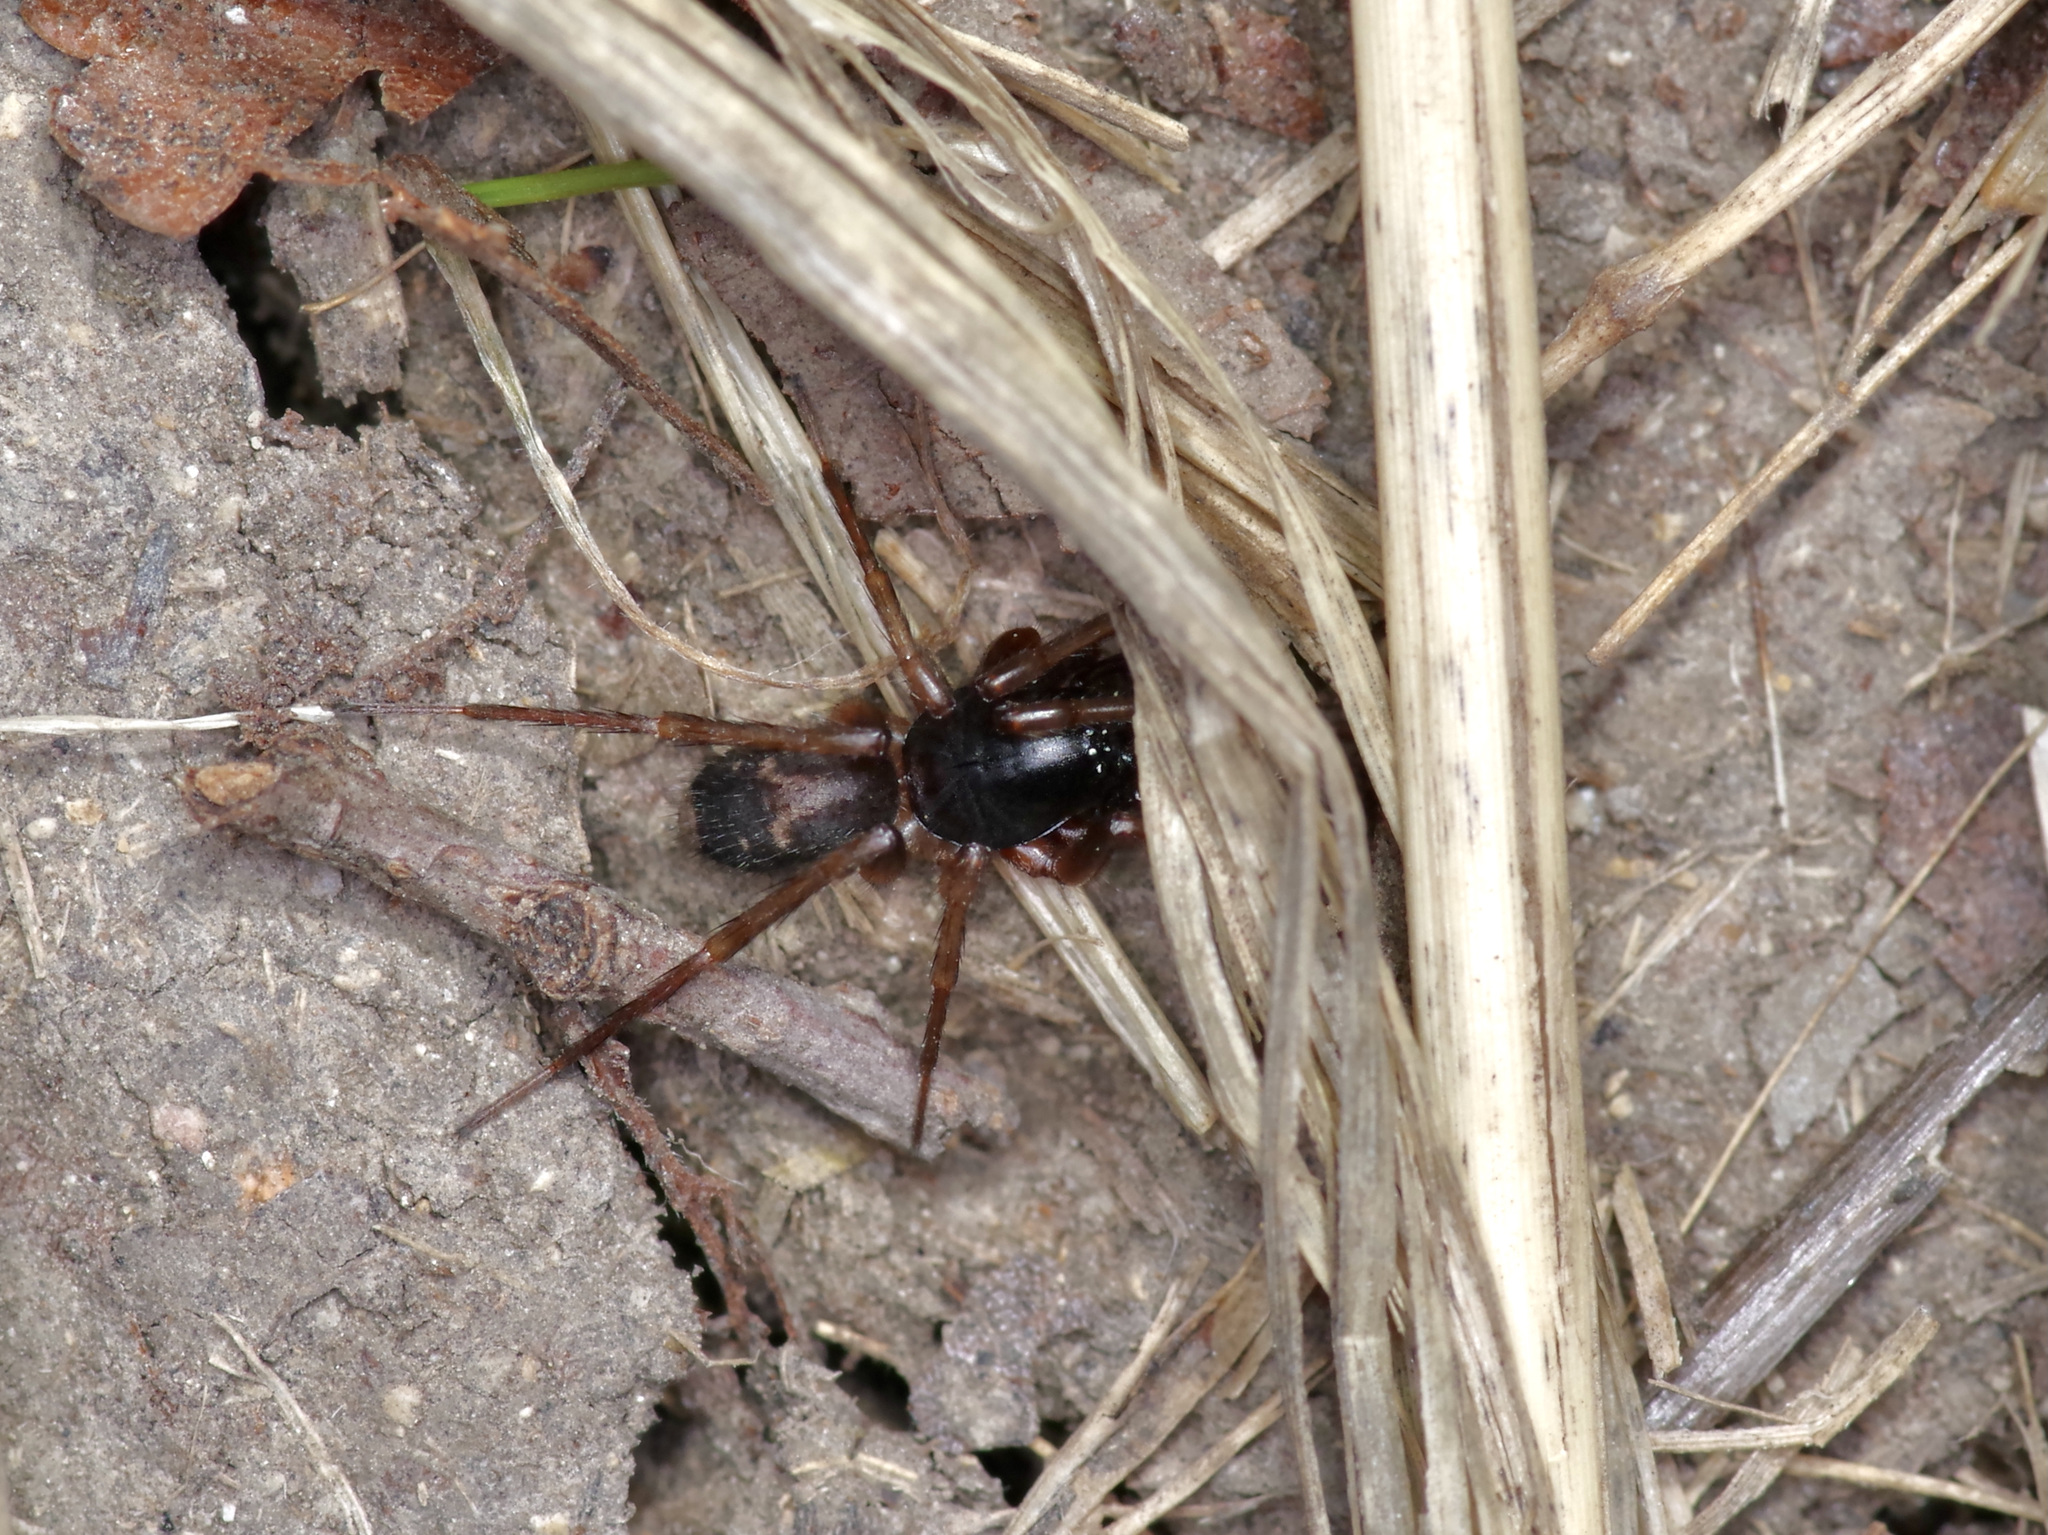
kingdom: Animalia
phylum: Arthropoda
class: Arachnida
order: Araneae
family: Corinnidae
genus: Falconina
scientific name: Falconina gracilis
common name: Antmimic spider
